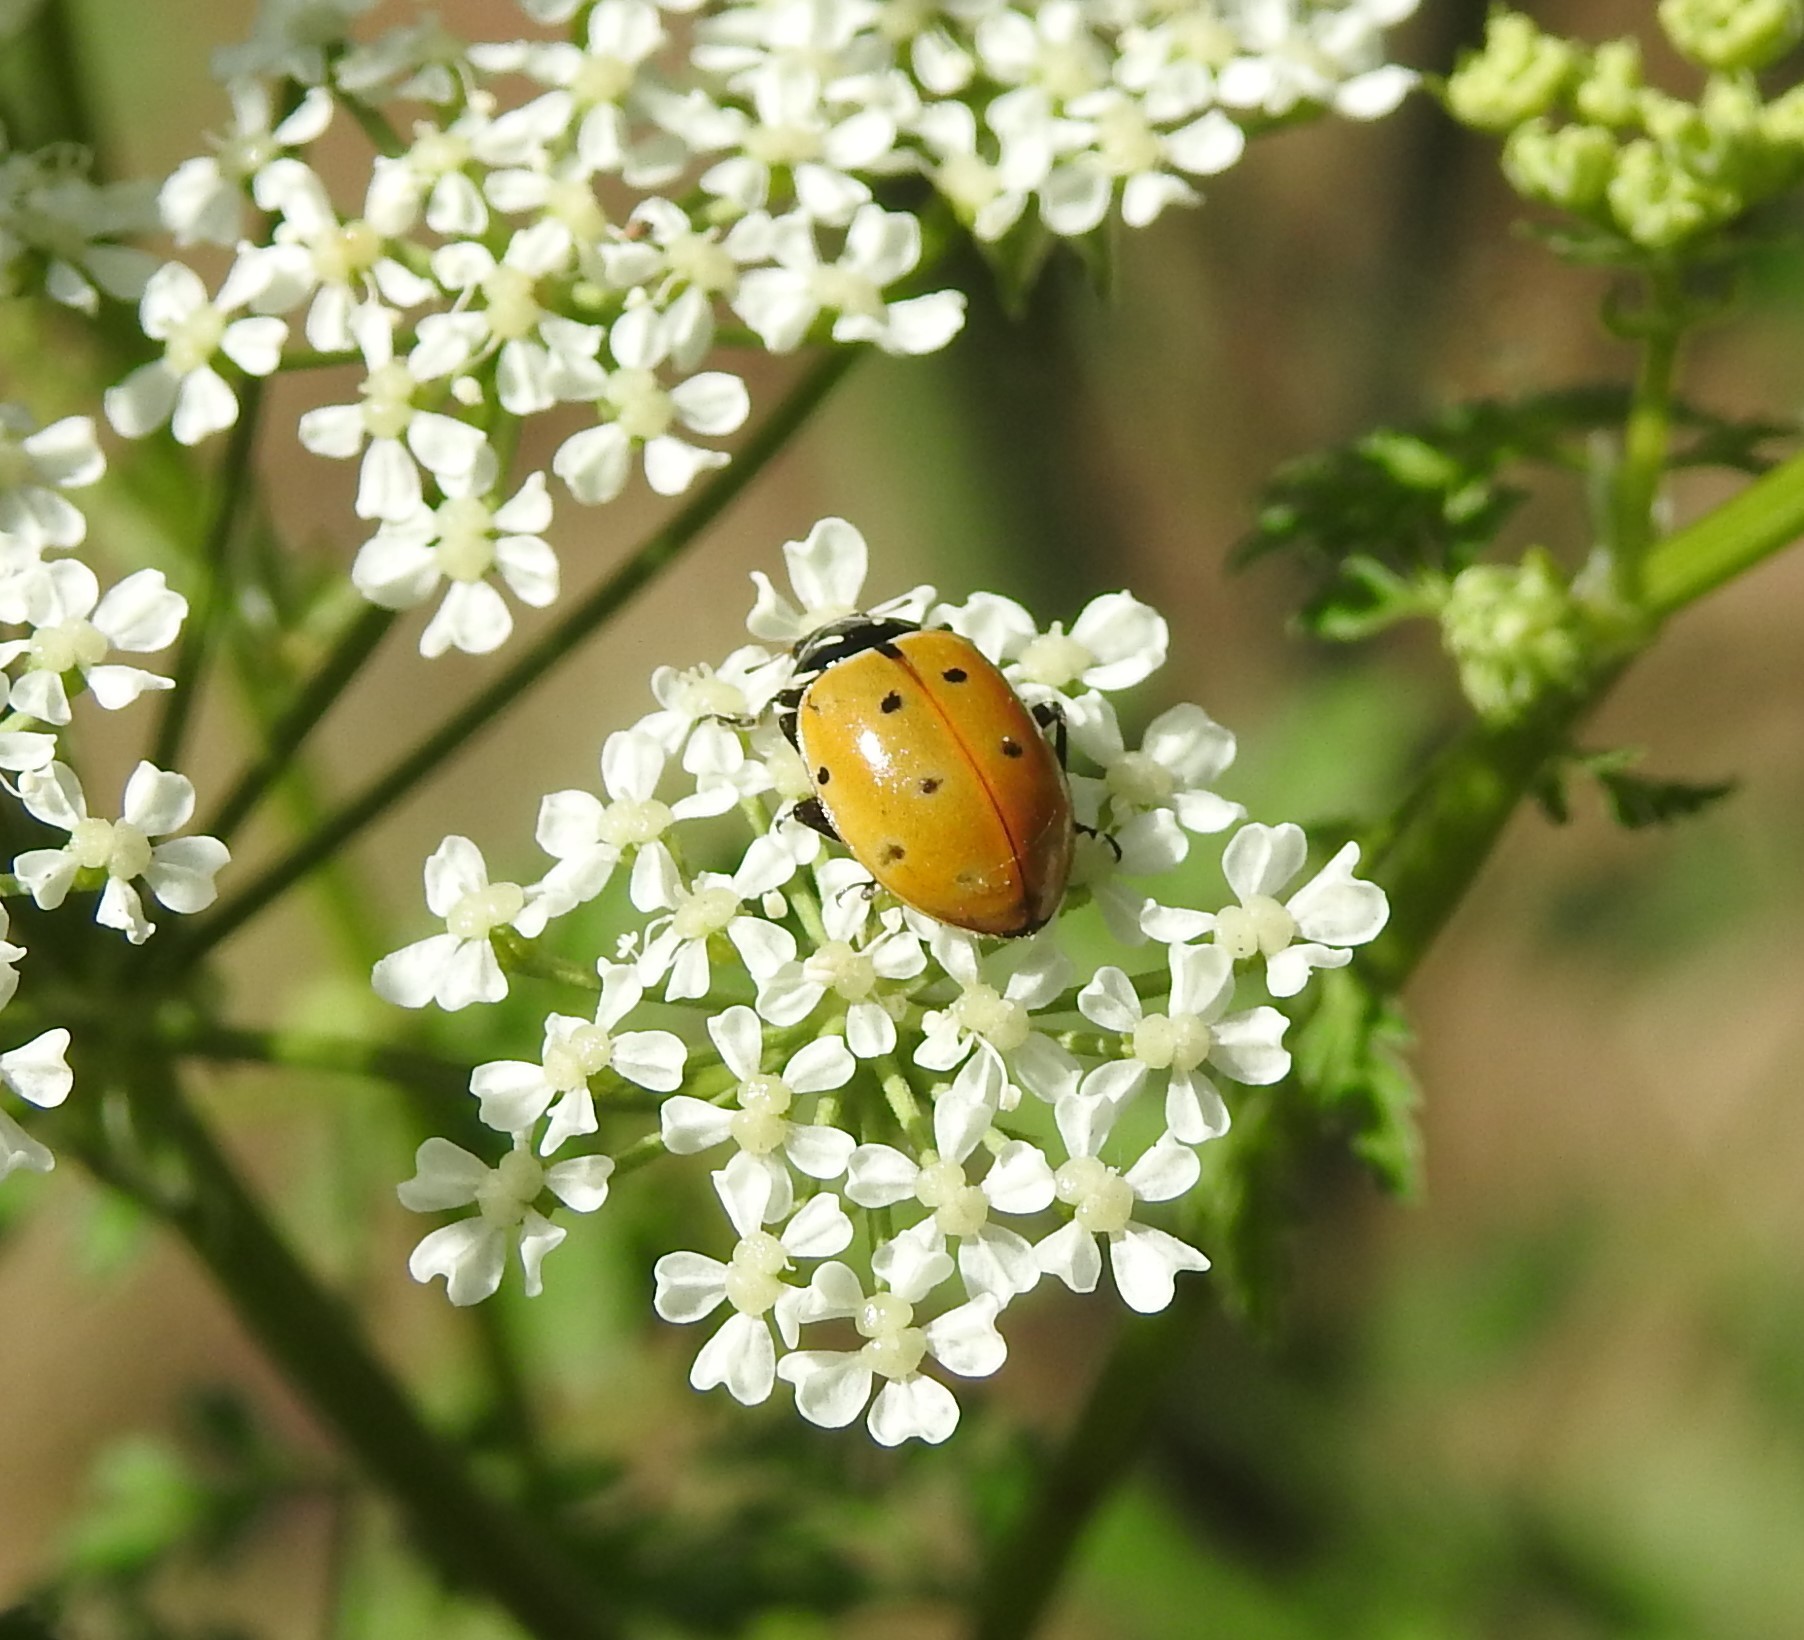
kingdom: Animalia
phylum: Arthropoda
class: Insecta
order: Coleoptera
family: Coccinellidae
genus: Hippodamia
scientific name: Hippodamia convergens
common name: Convergent lady beetle
